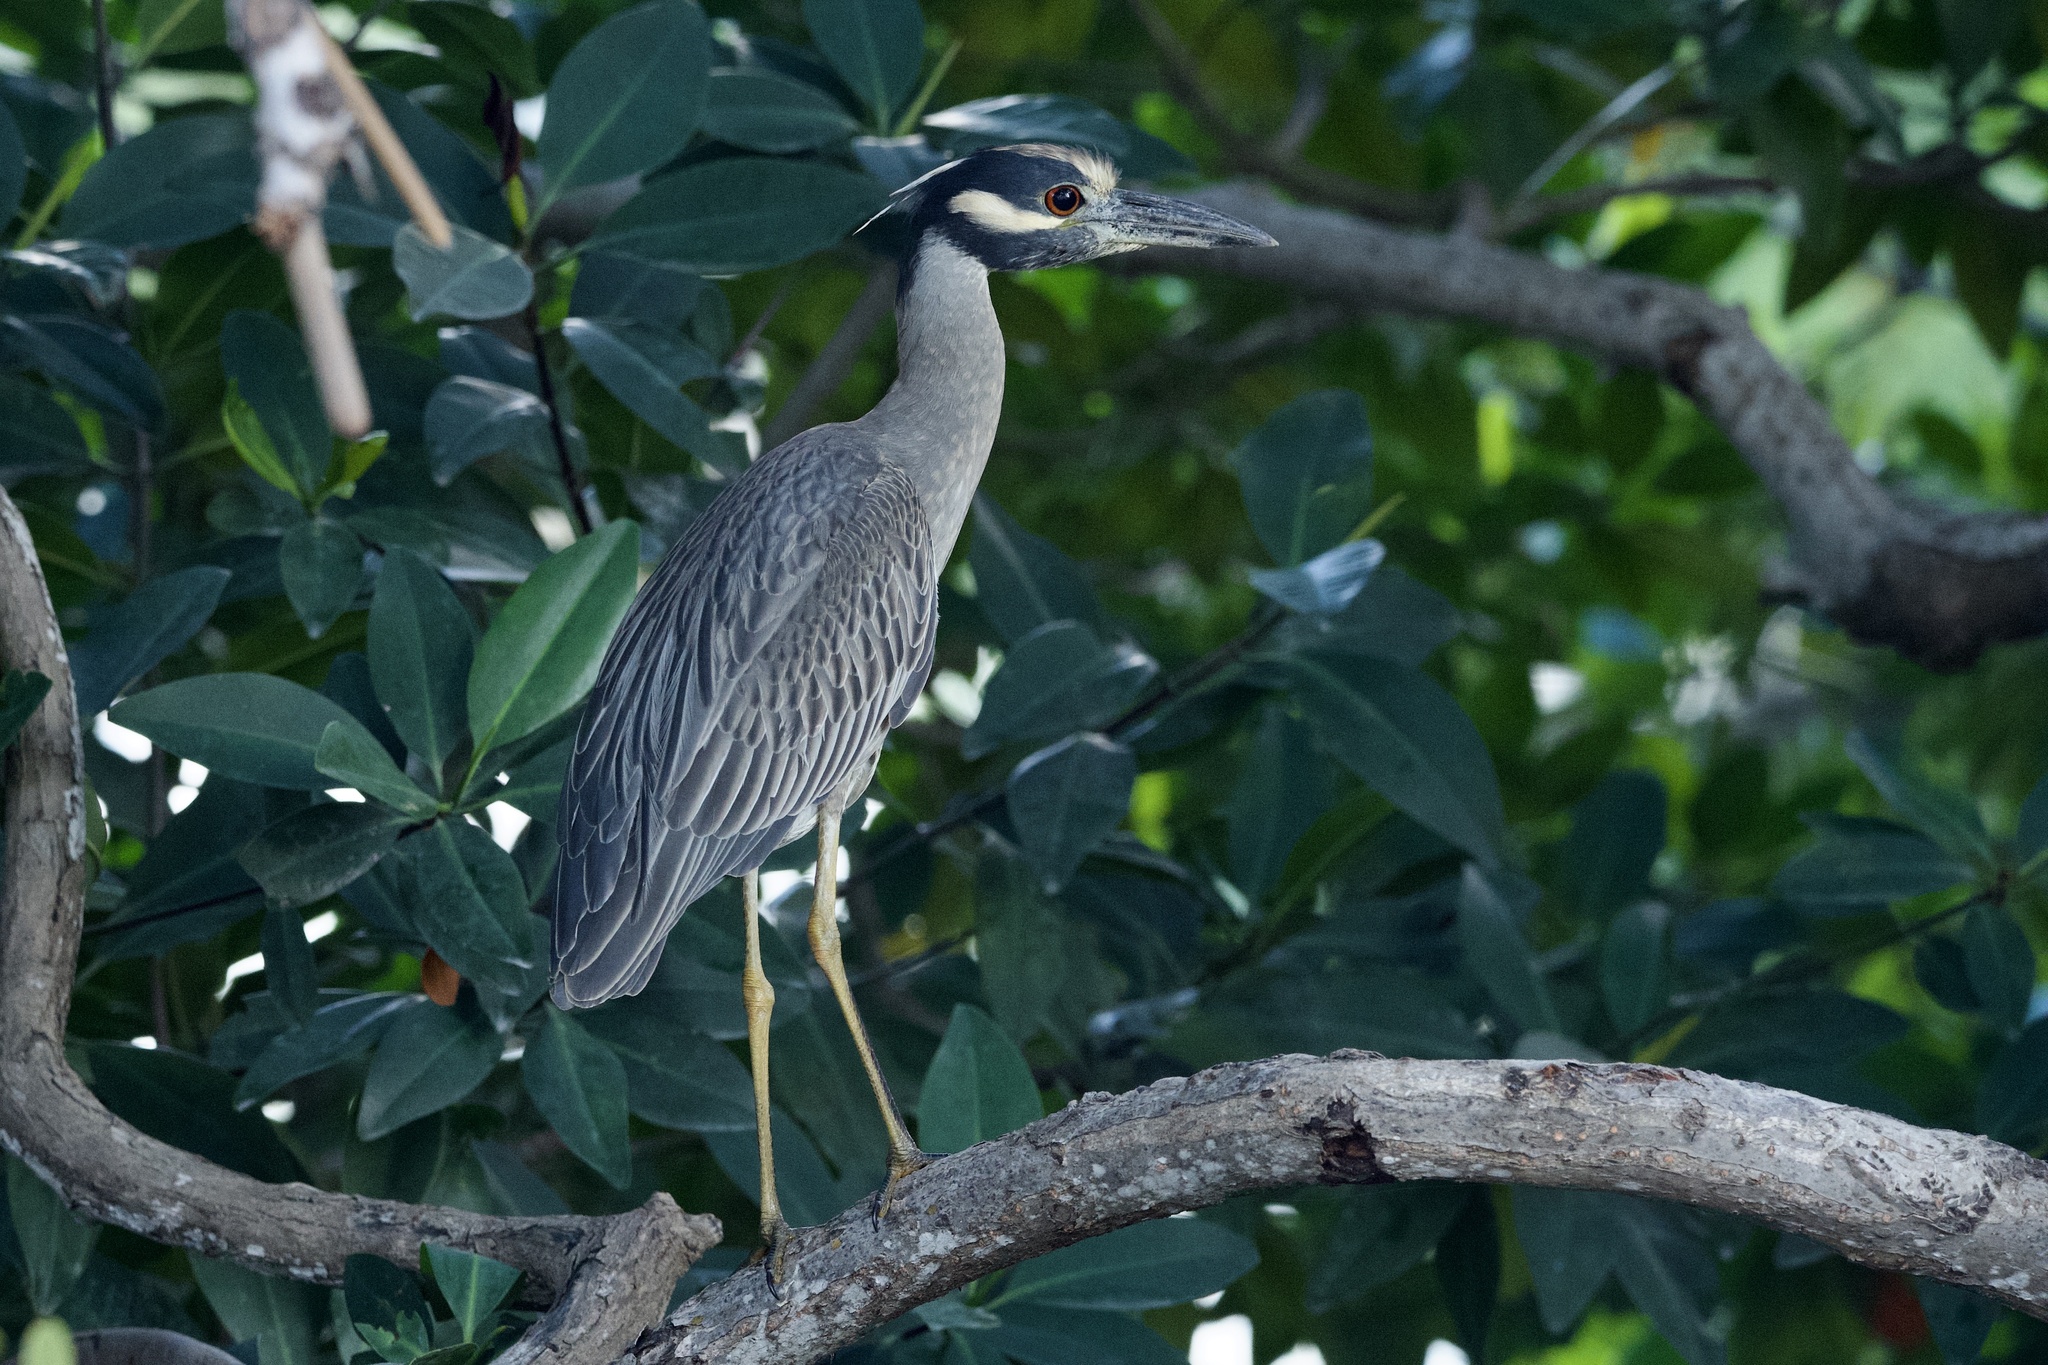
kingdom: Animalia
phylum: Chordata
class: Aves
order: Pelecaniformes
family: Ardeidae
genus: Nyctanassa
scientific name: Nyctanassa violacea
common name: Yellow-crowned night heron
